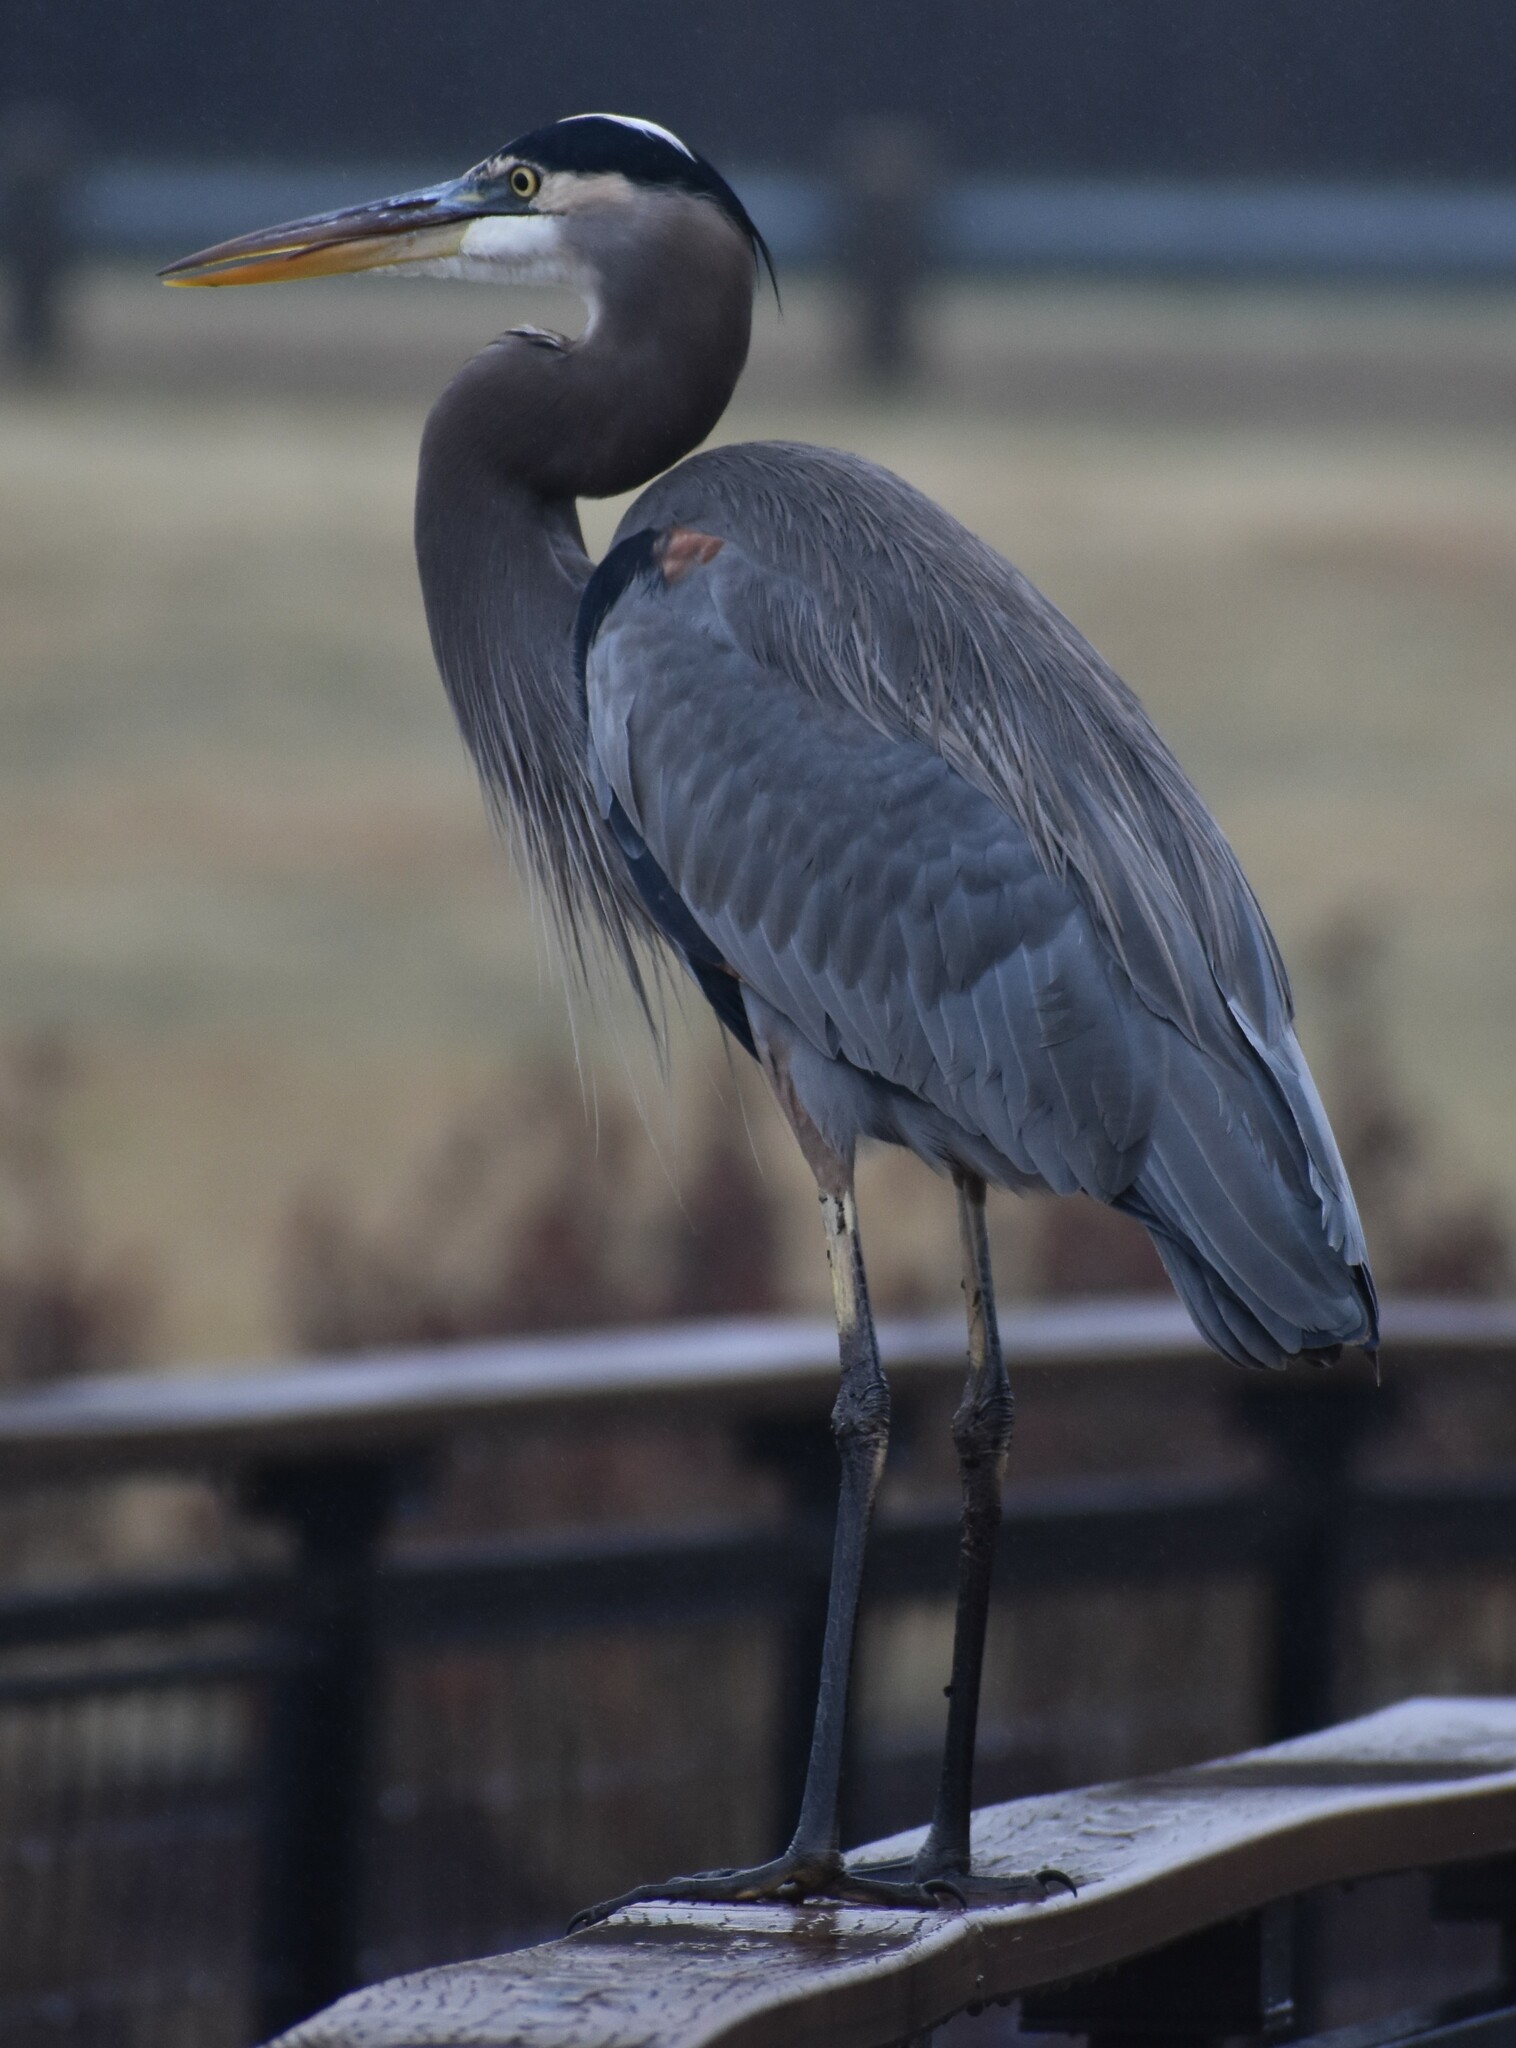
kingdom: Animalia
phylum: Chordata
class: Aves
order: Pelecaniformes
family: Ardeidae
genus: Ardea
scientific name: Ardea herodias
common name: Great blue heron
